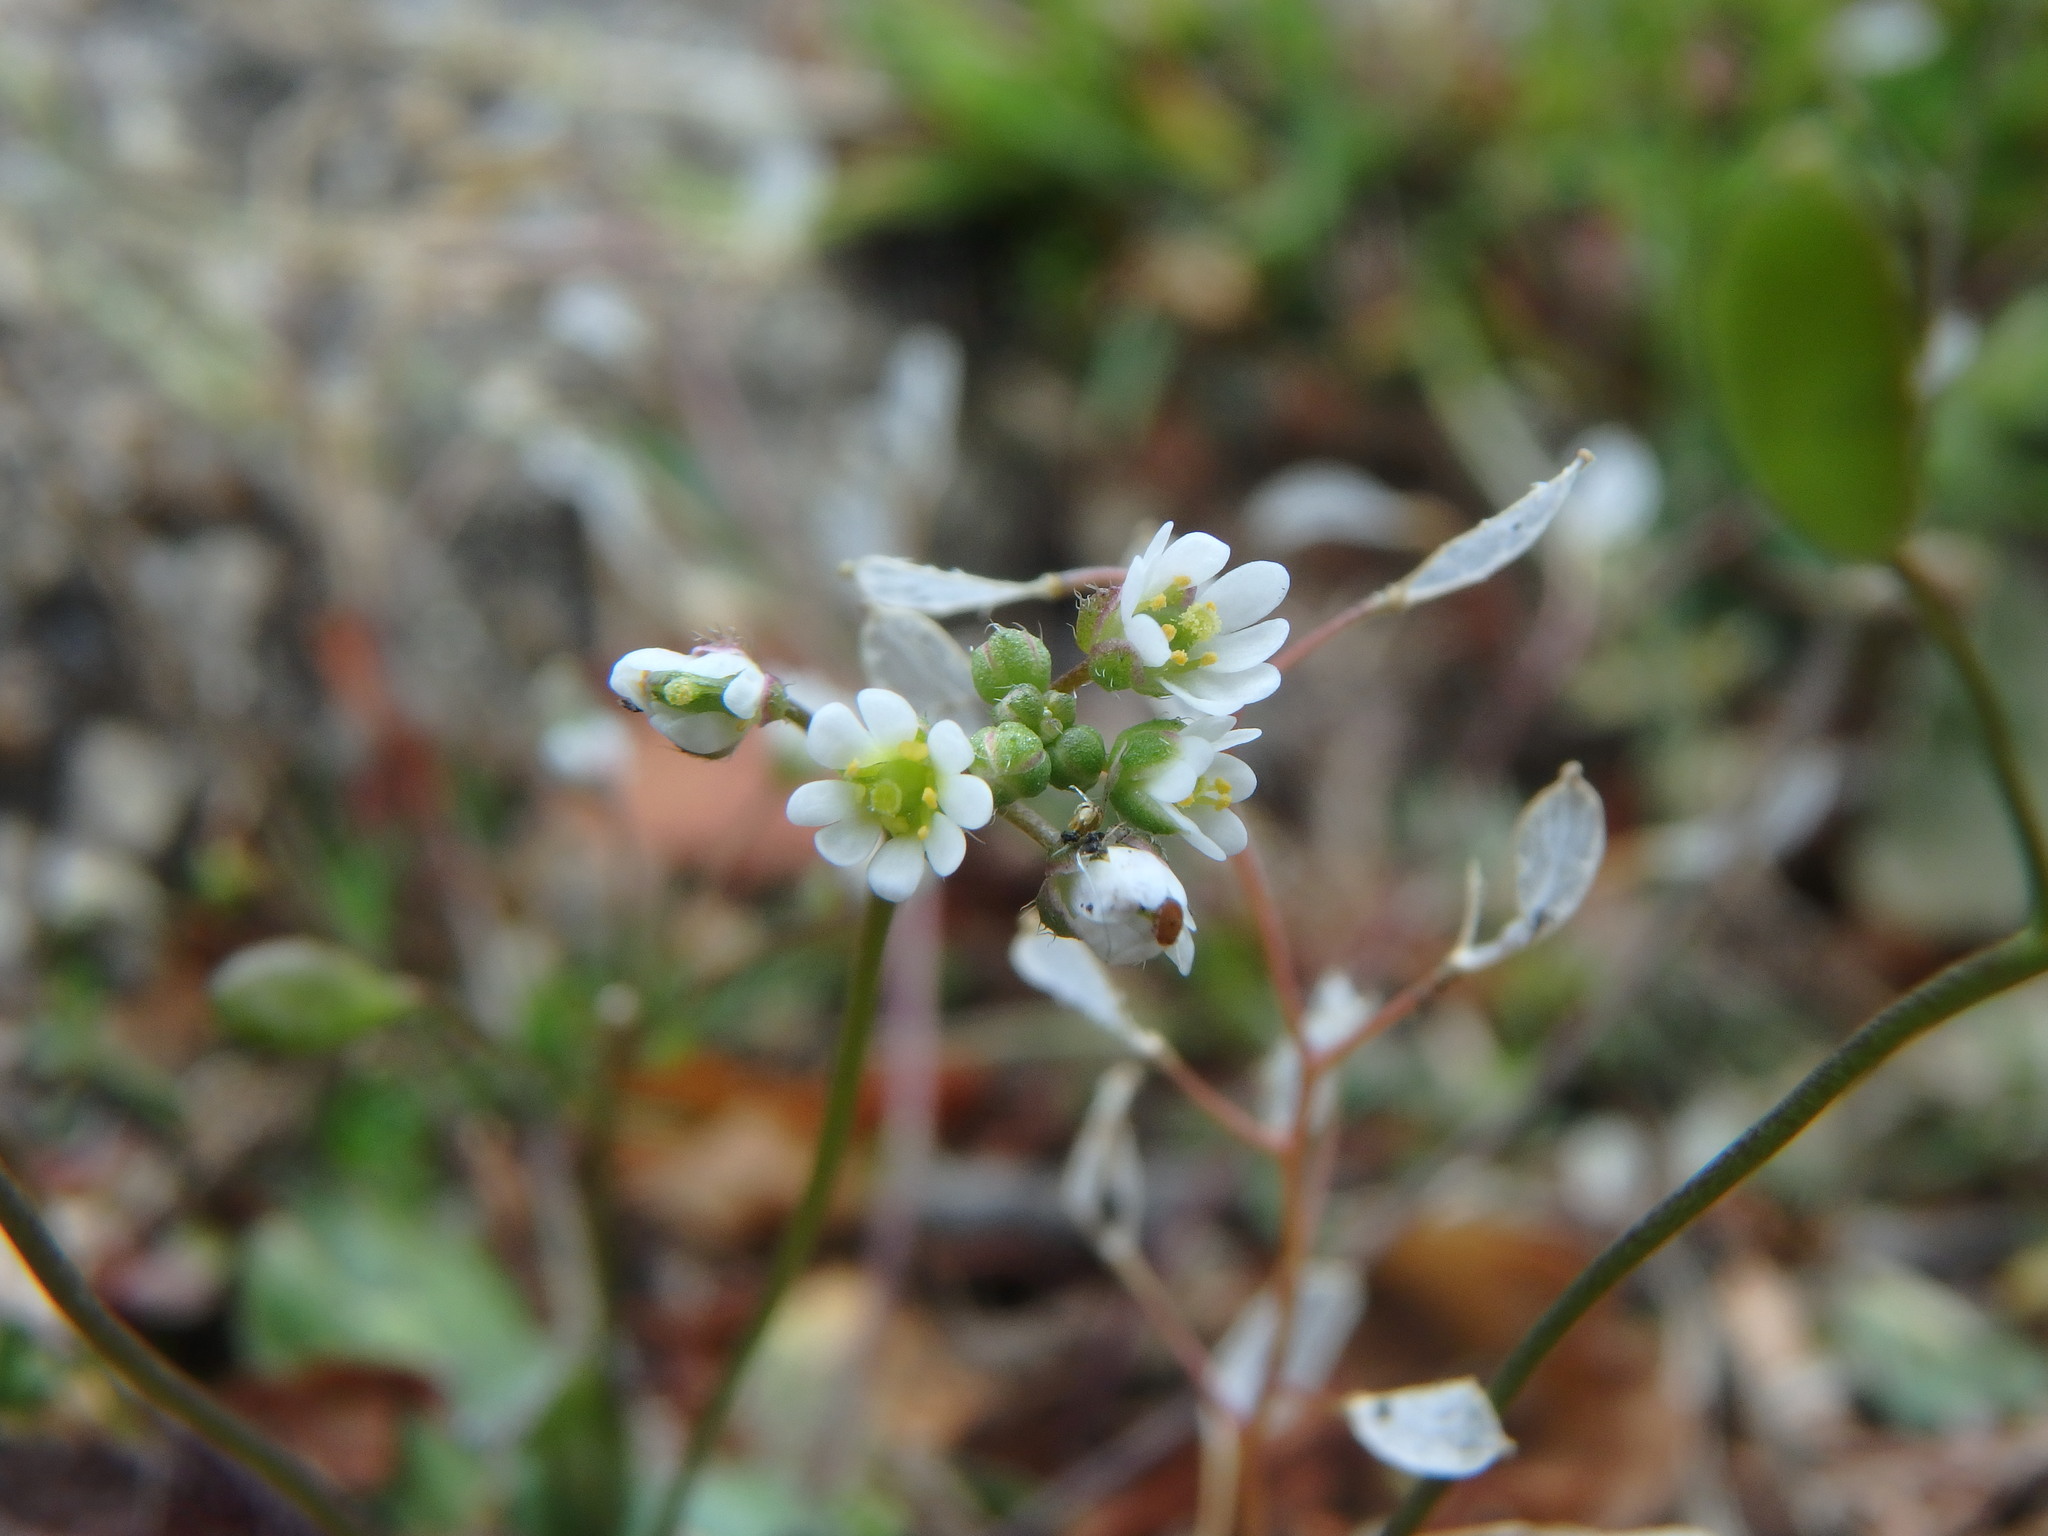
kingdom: Plantae
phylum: Tracheophyta
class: Magnoliopsida
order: Brassicales
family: Brassicaceae
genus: Draba
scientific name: Draba verna
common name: Spring draba
